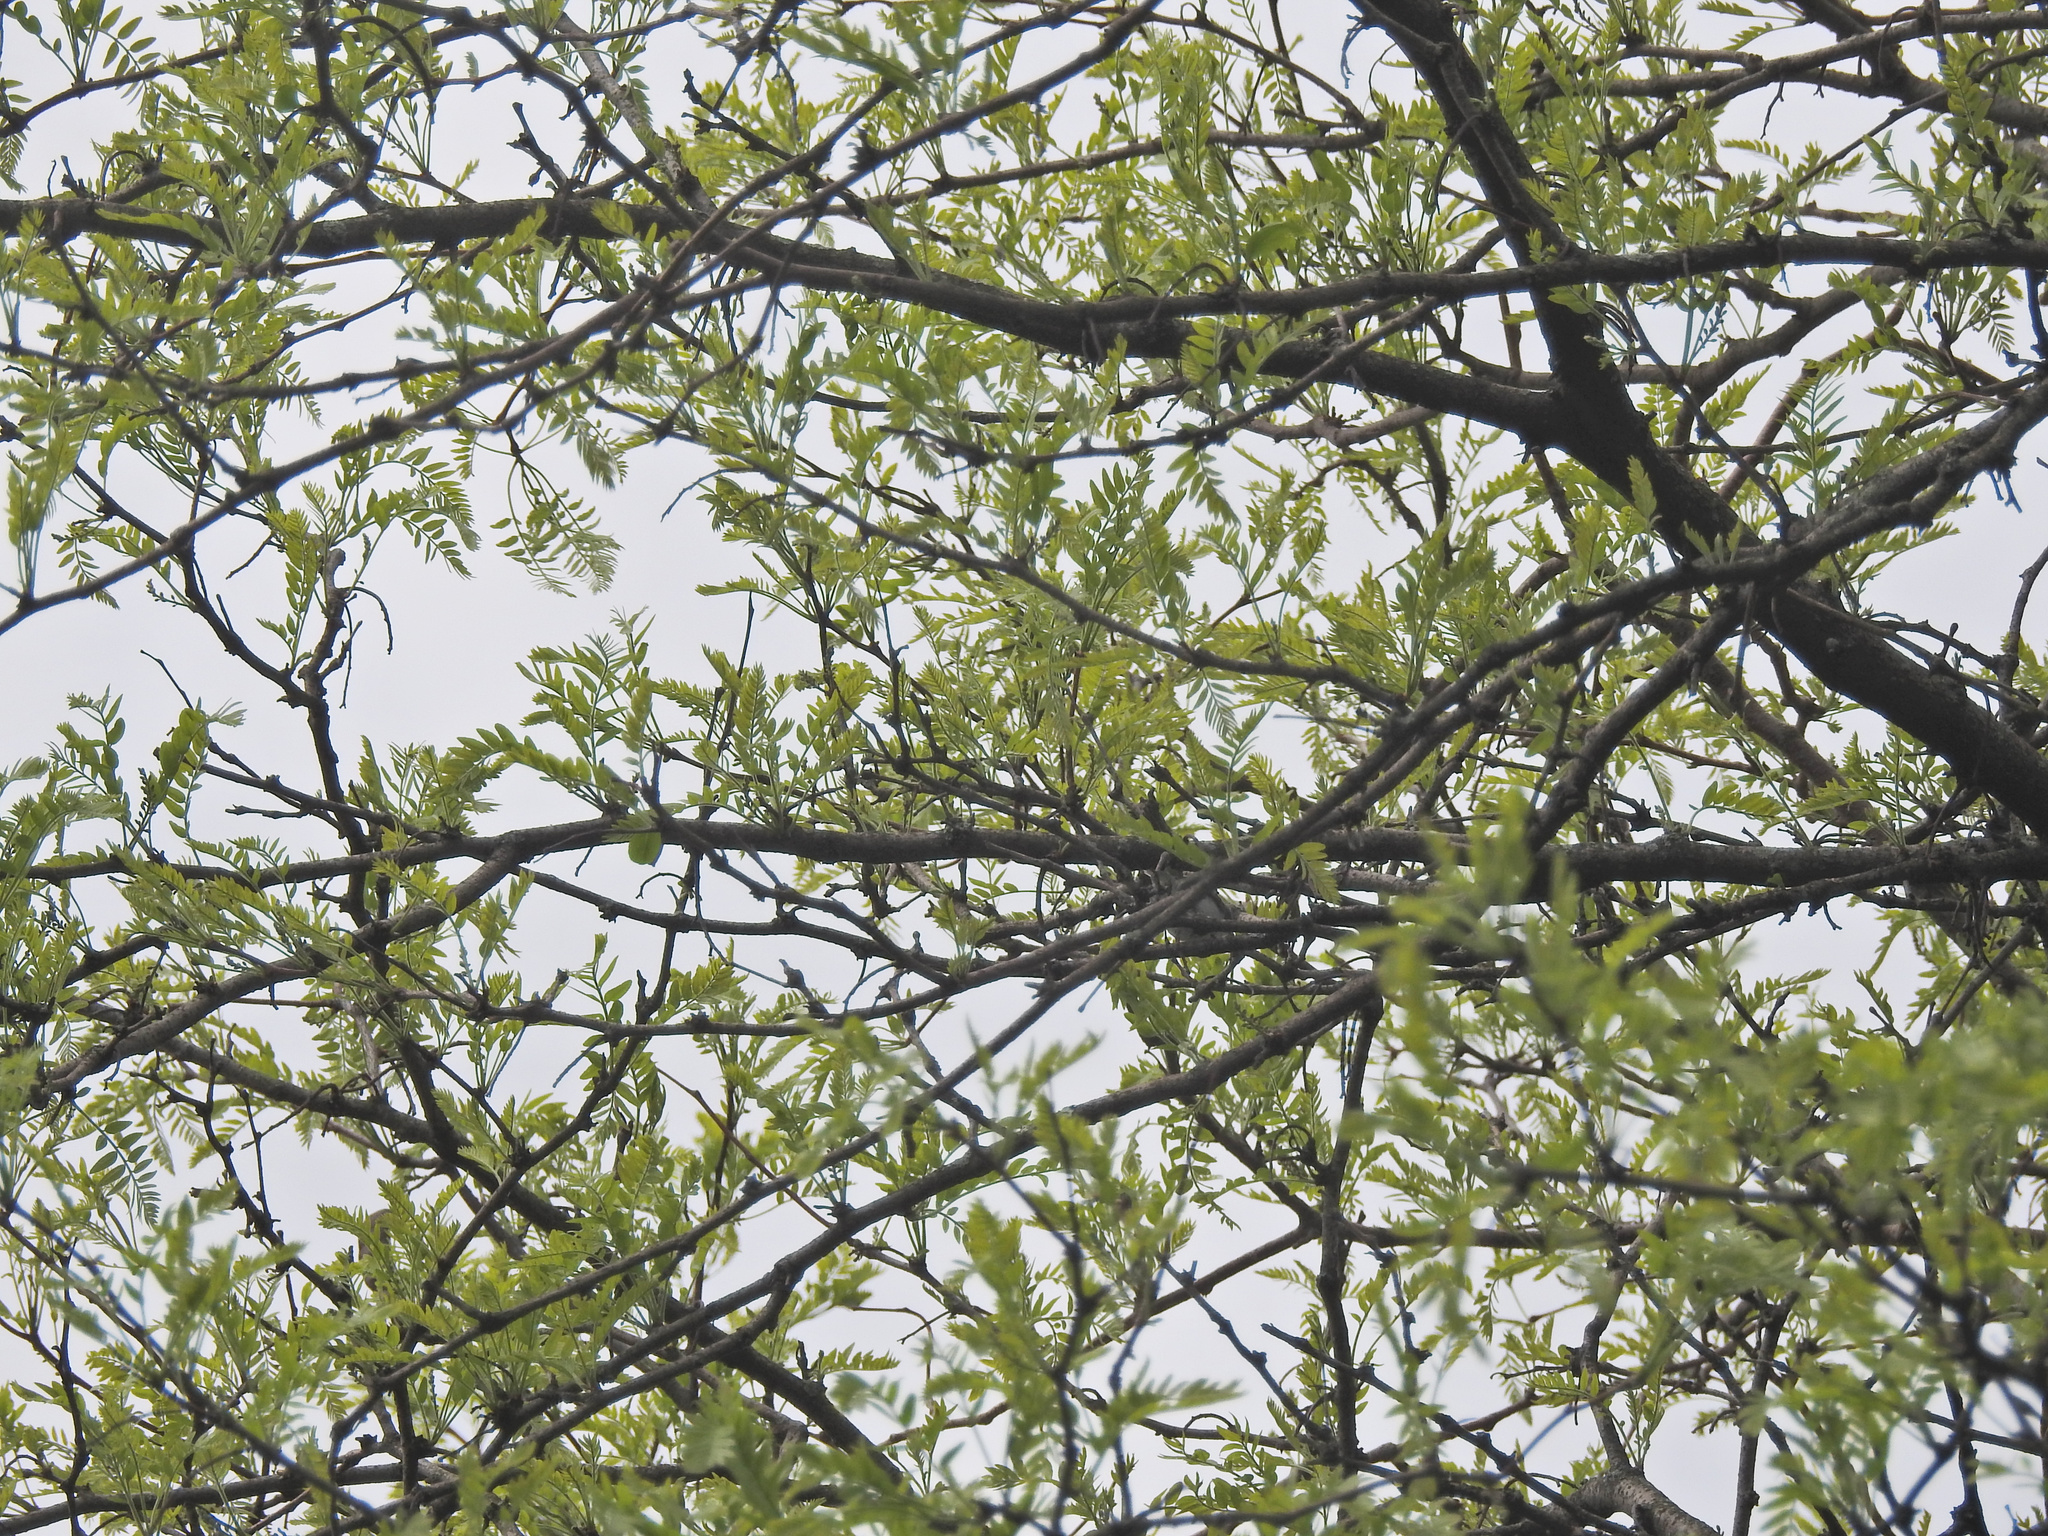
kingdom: Plantae
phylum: Tracheophyta
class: Magnoliopsida
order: Fabales
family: Fabaceae
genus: Gleditsia
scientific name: Gleditsia triacanthos
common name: Common honeylocust
